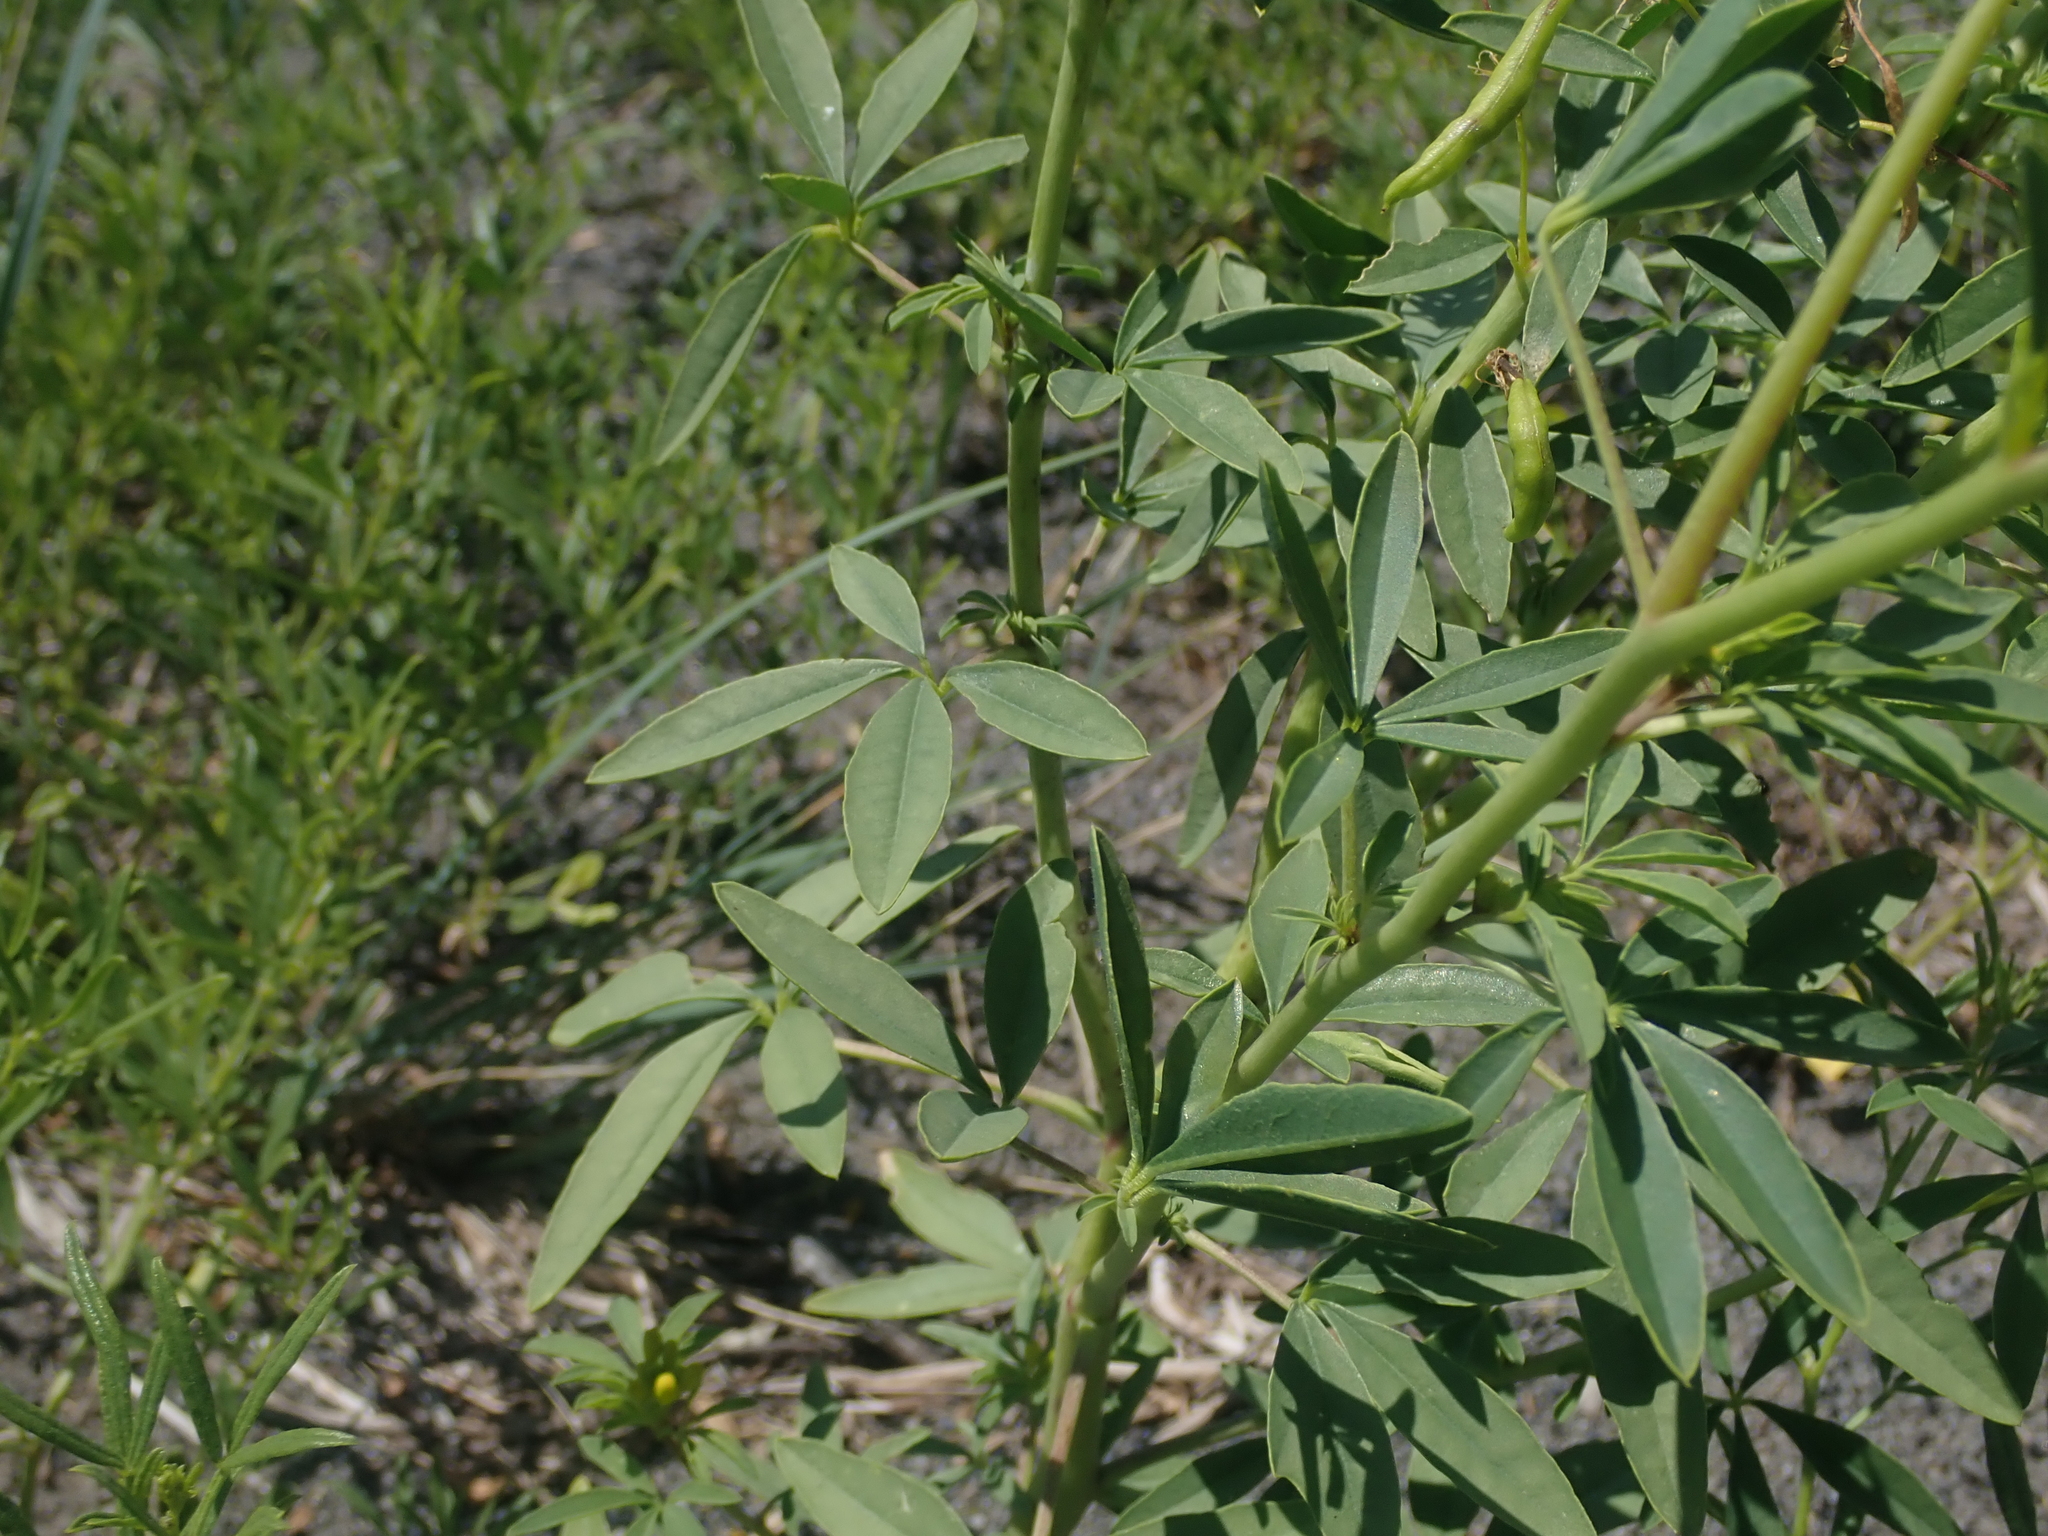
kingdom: Plantae
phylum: Tracheophyta
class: Magnoliopsida
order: Brassicales
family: Cleomaceae
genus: Cleomella
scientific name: Cleomella lutea
